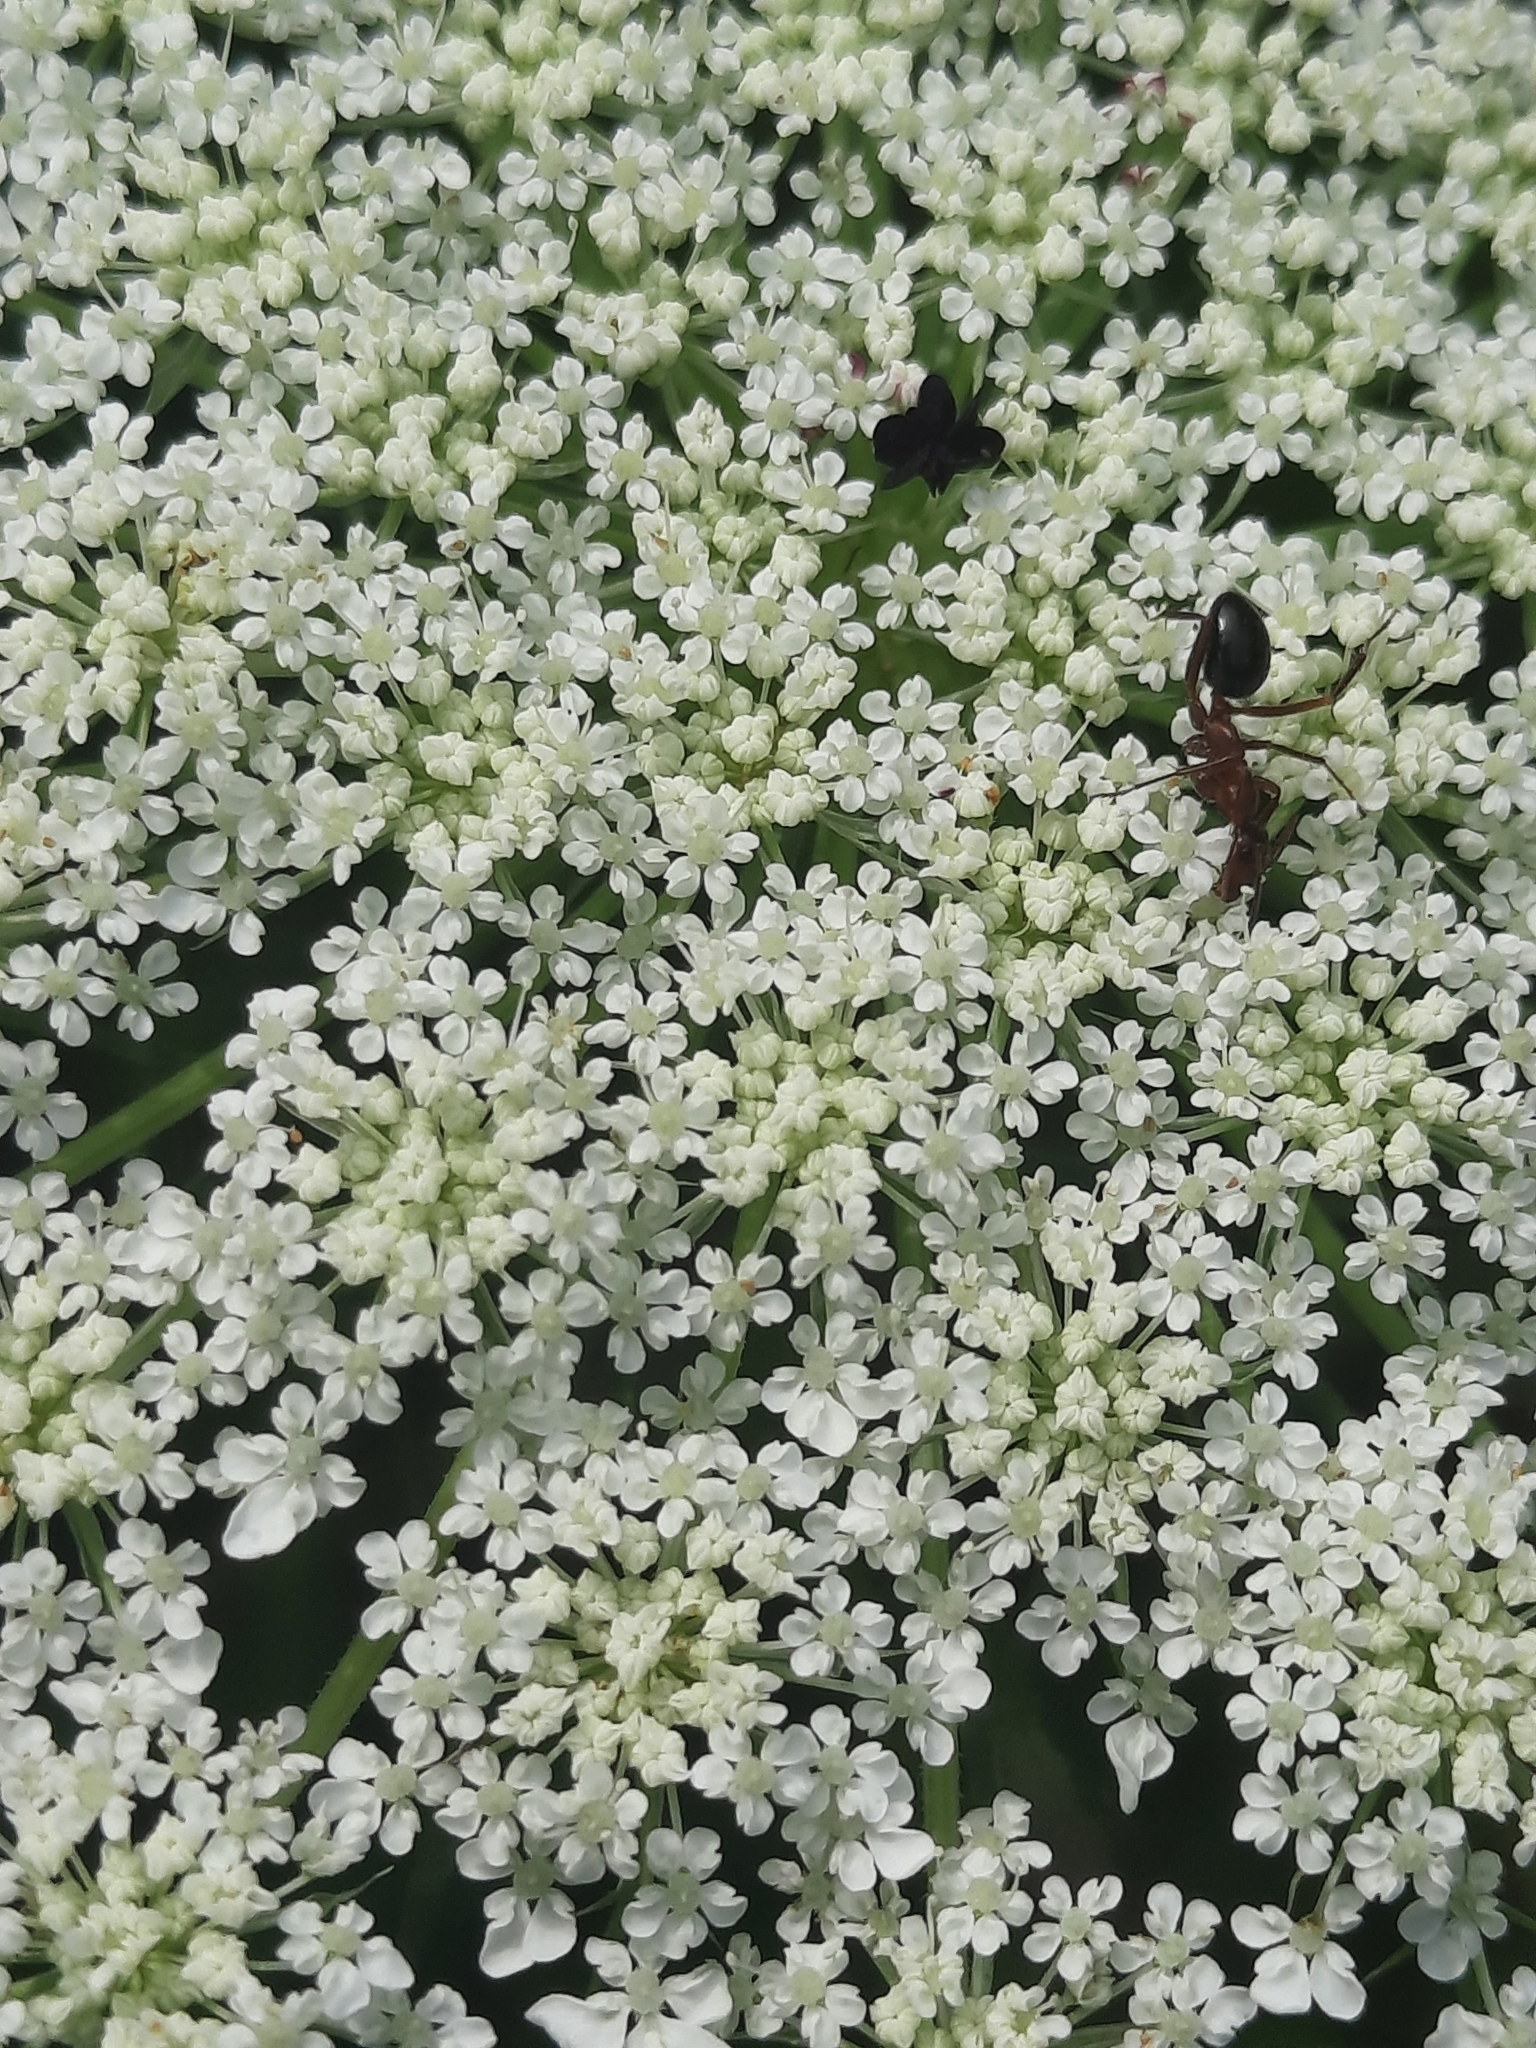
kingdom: Animalia
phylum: Arthropoda
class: Insecta
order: Hymenoptera
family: Formicidae
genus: Formica
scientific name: Formica
